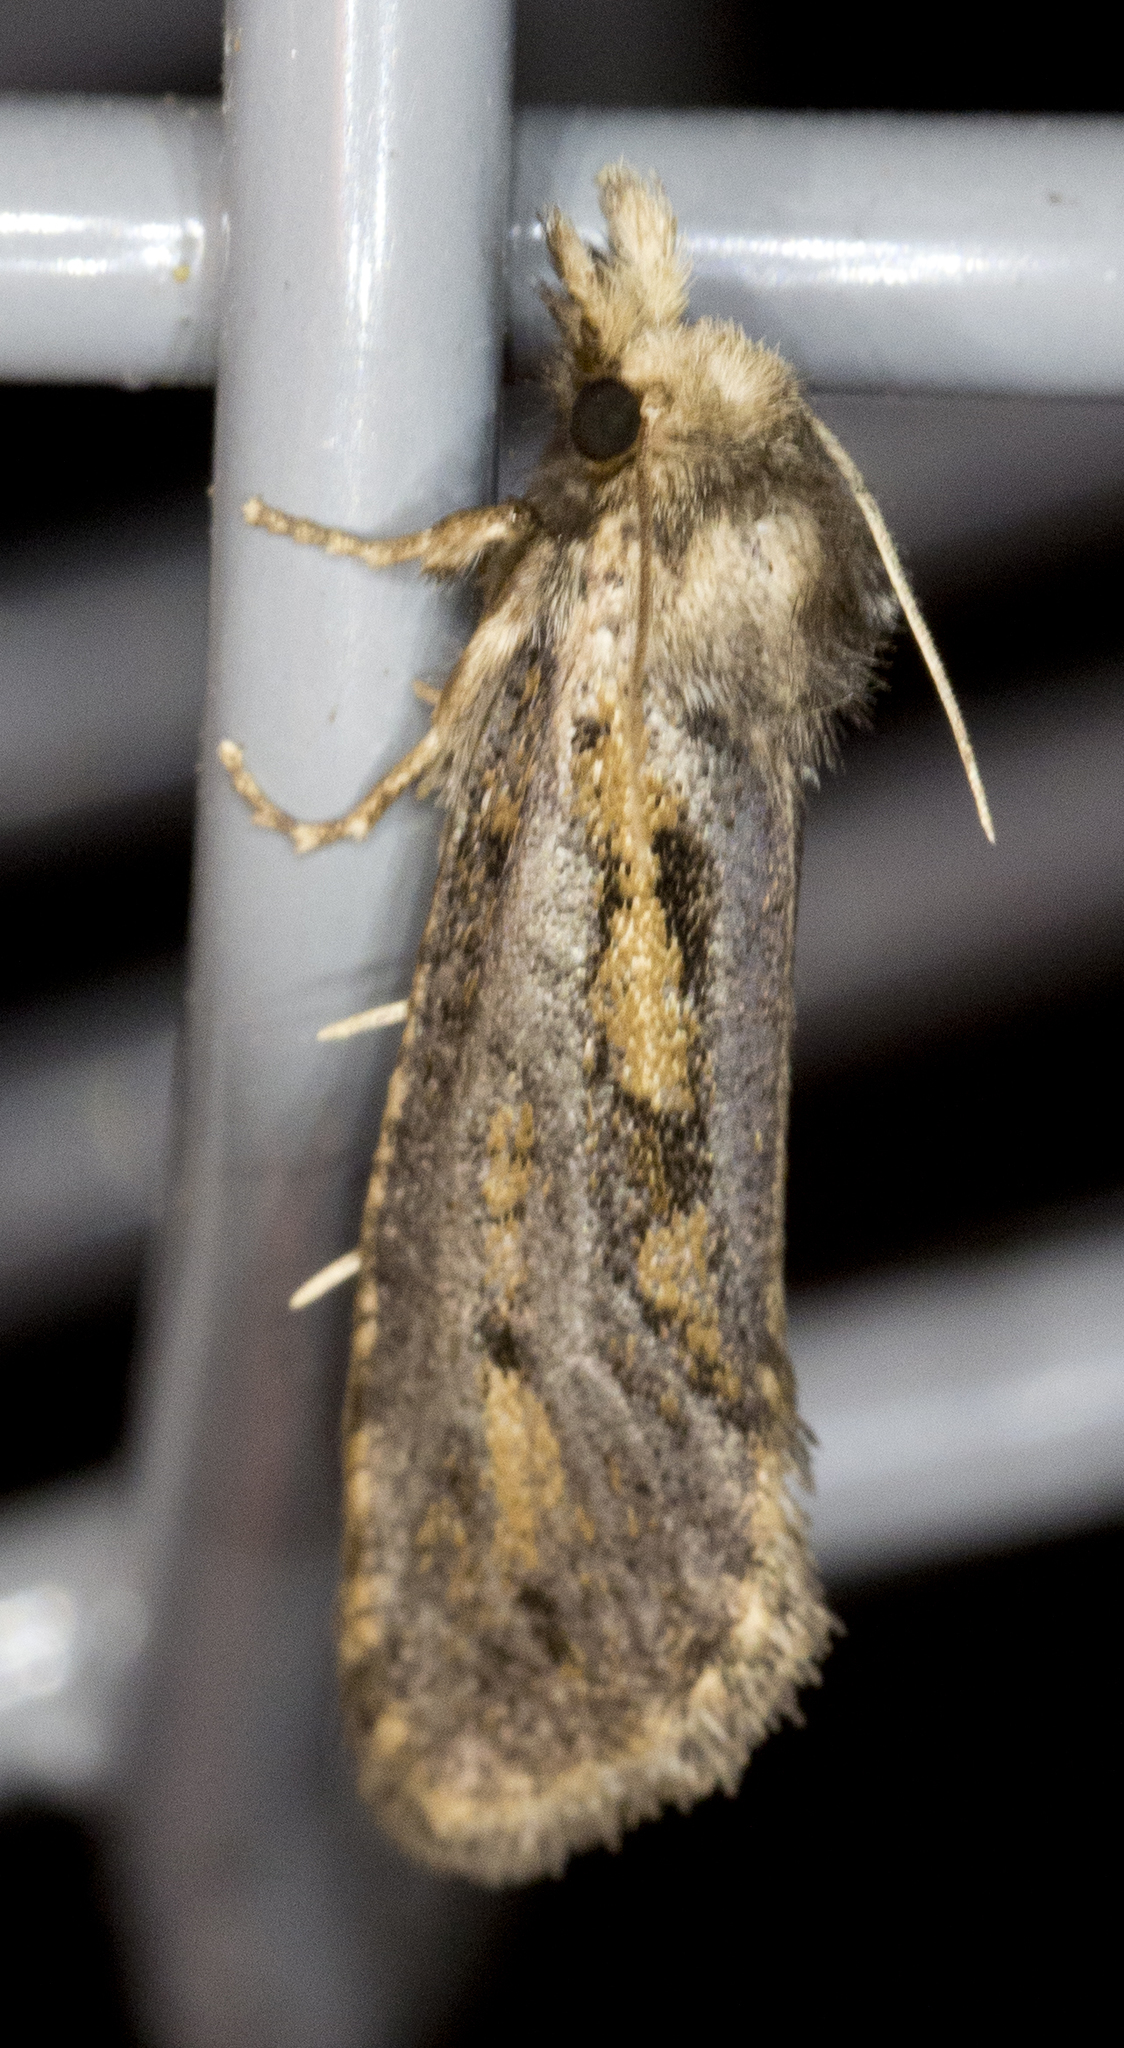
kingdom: Animalia
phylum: Arthropoda
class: Insecta
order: Lepidoptera
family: Tineidae
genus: Acrolophus
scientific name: Acrolophus popeanella
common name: Clemens' grass tubeworm moth
